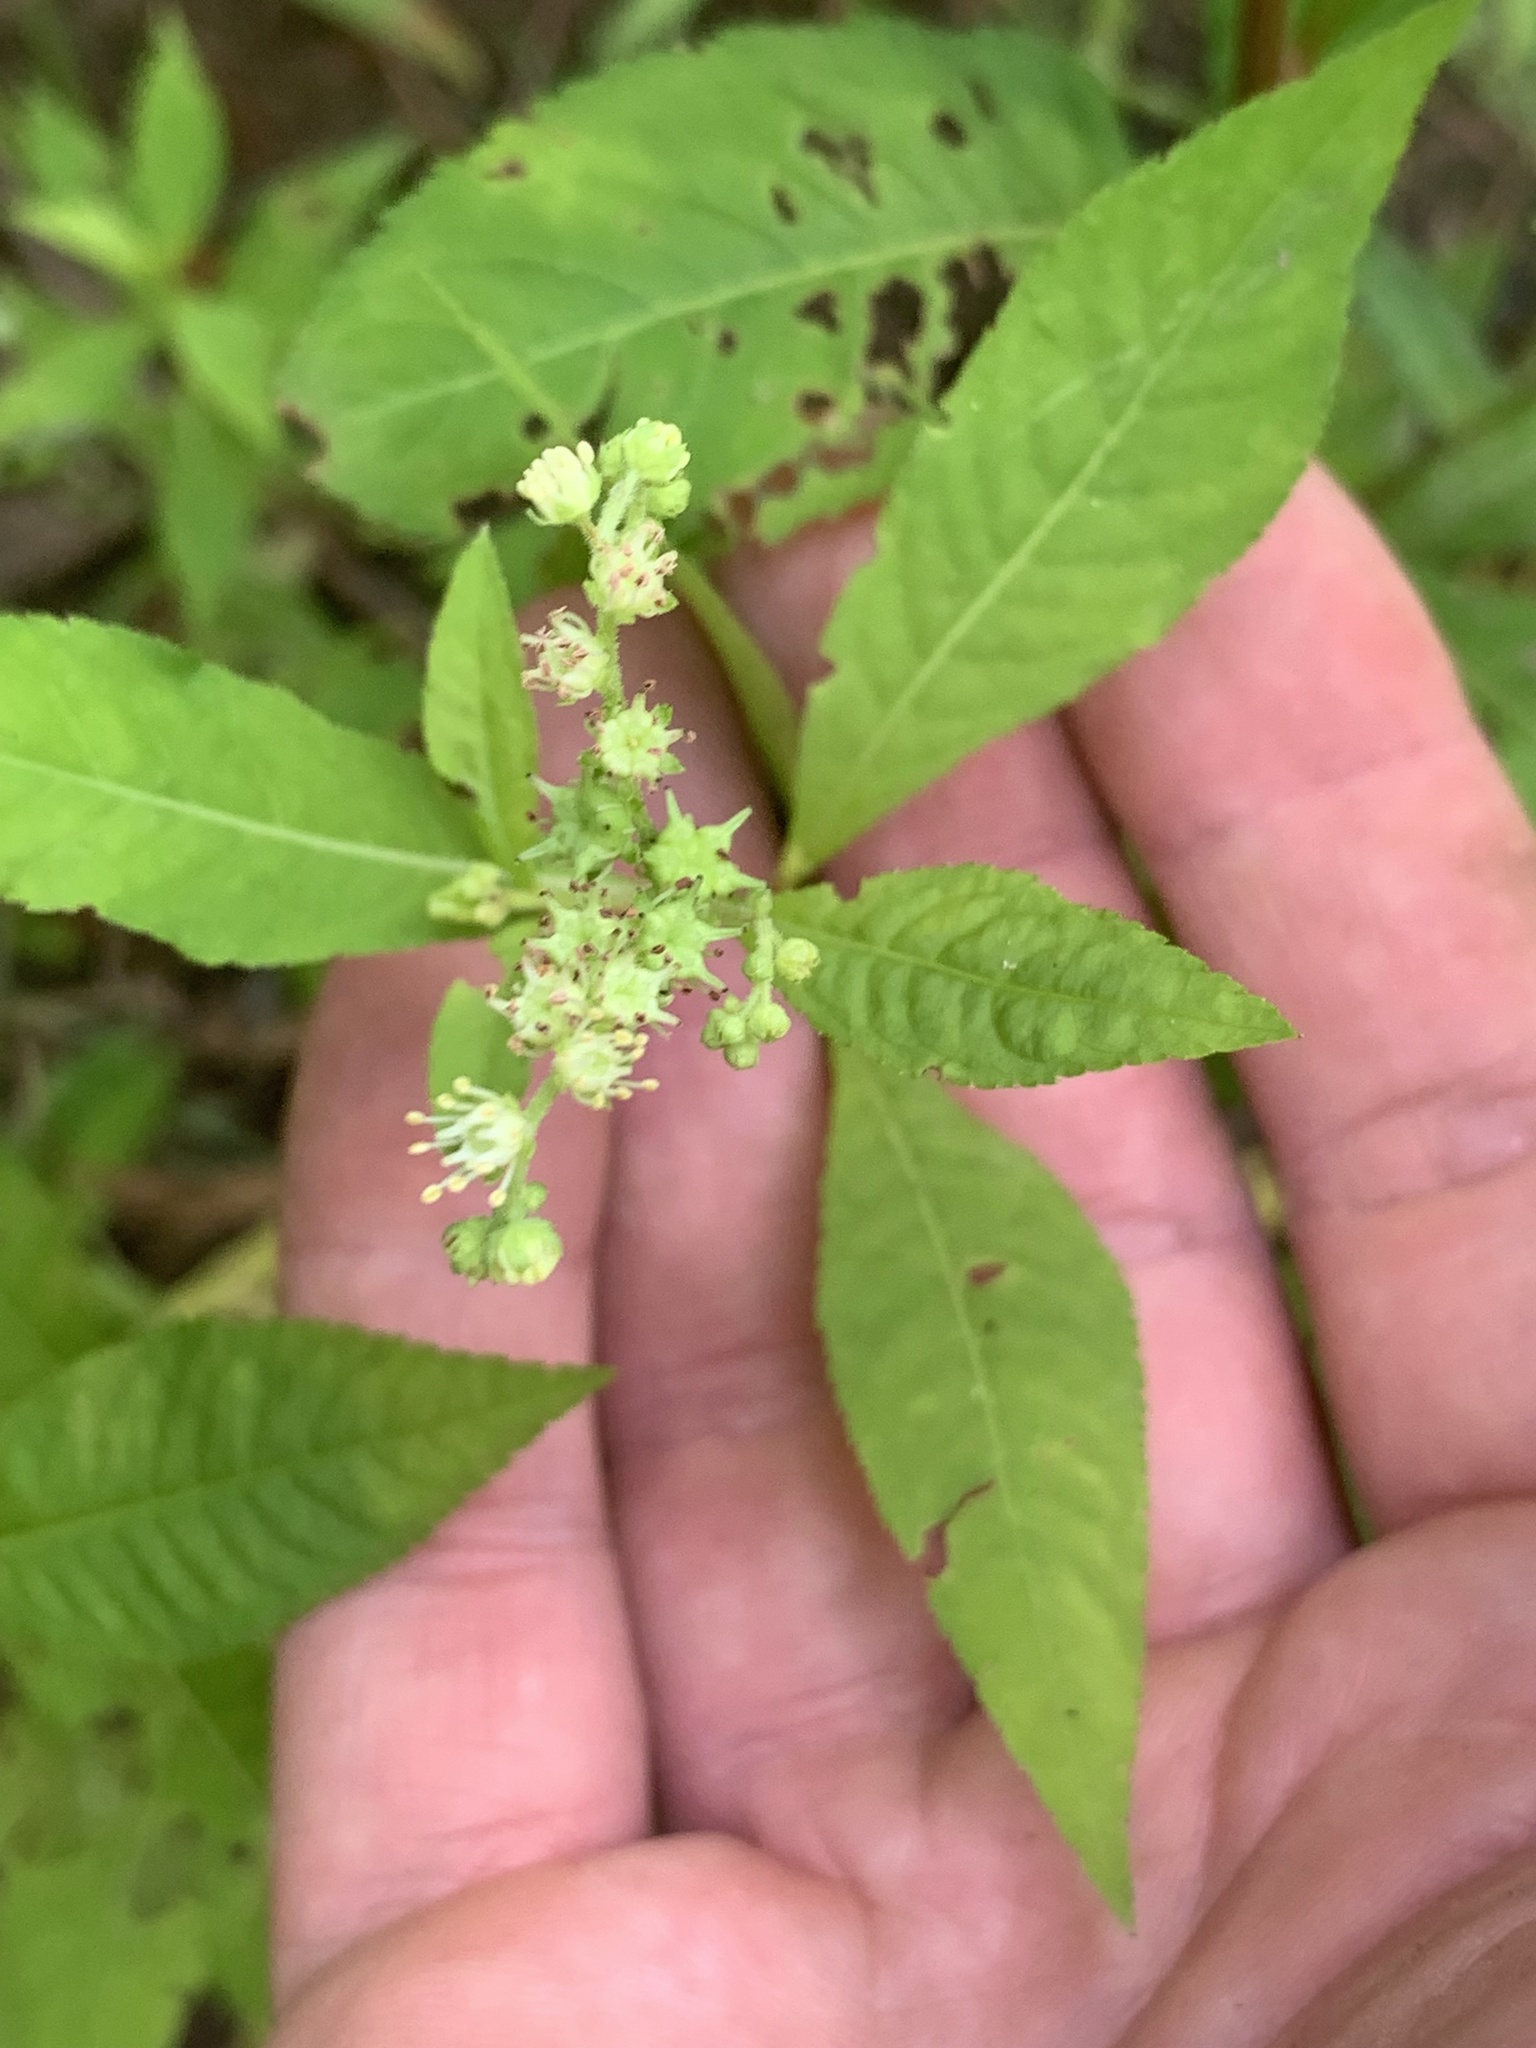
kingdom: Plantae
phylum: Tracheophyta
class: Magnoliopsida
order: Saxifragales
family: Penthoraceae
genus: Penthorum
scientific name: Penthorum sedoides
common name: Ditch stonecrop
